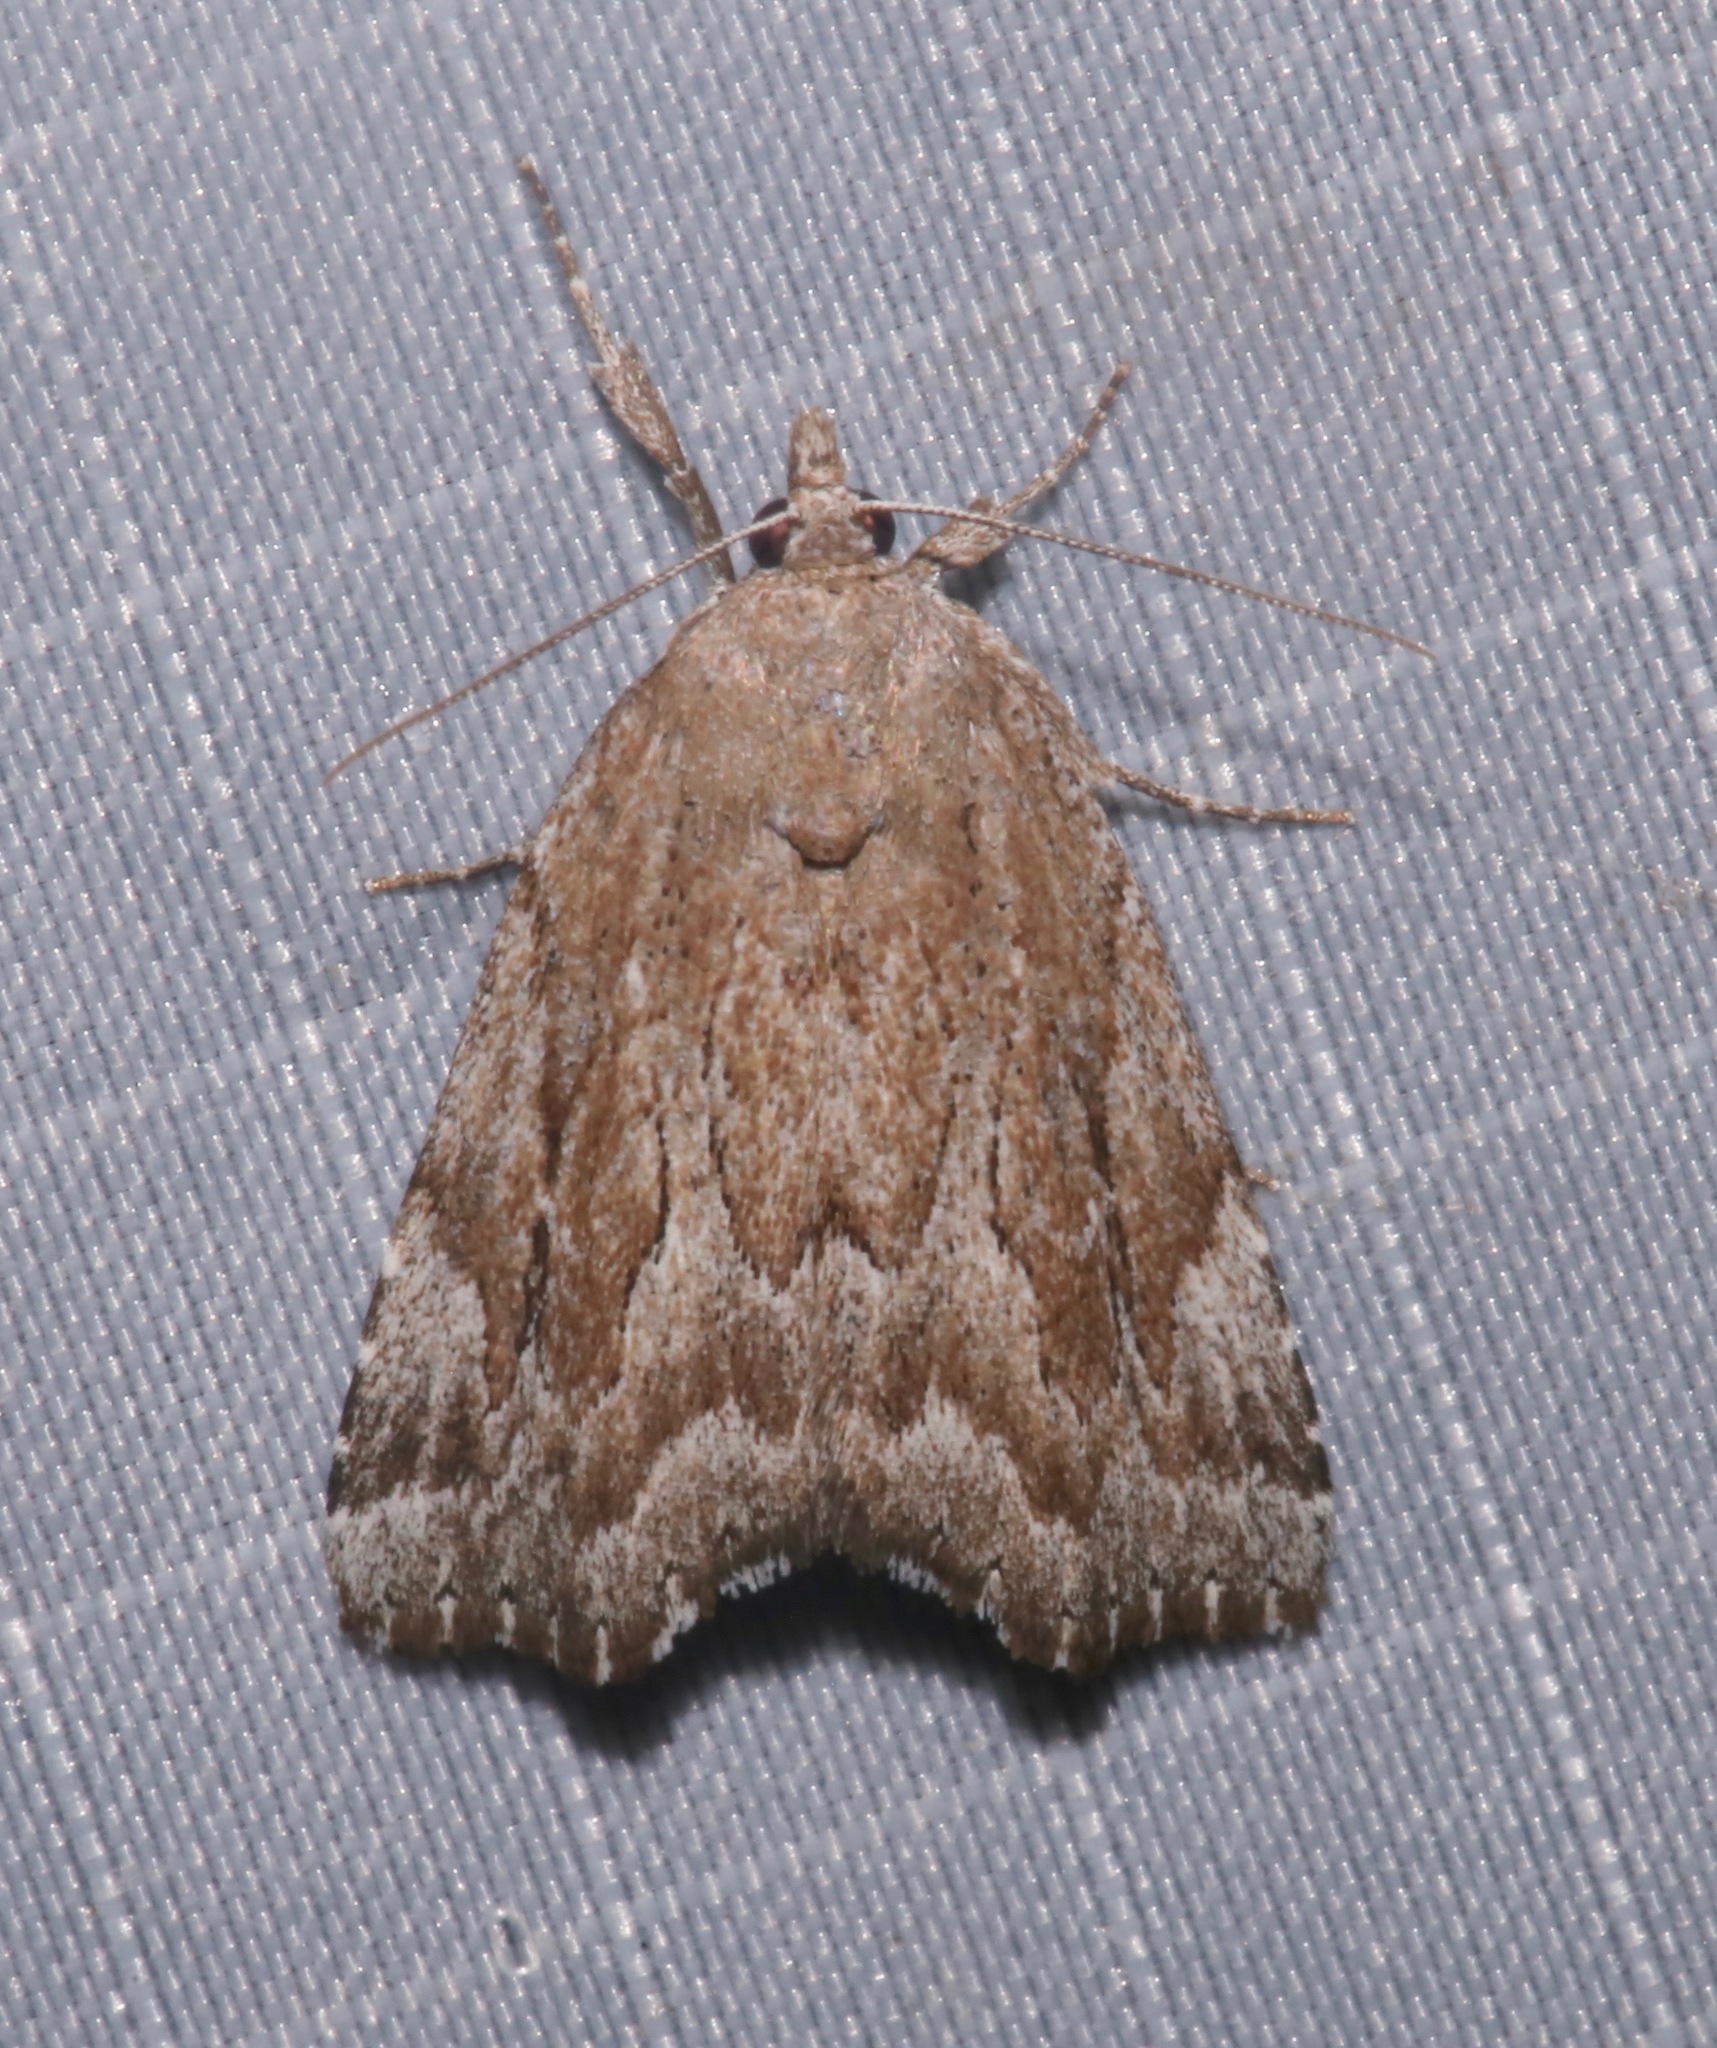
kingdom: Animalia
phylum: Arthropoda
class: Insecta
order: Lepidoptera
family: Erebidae
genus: Cutina
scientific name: Cutina albopunctella
